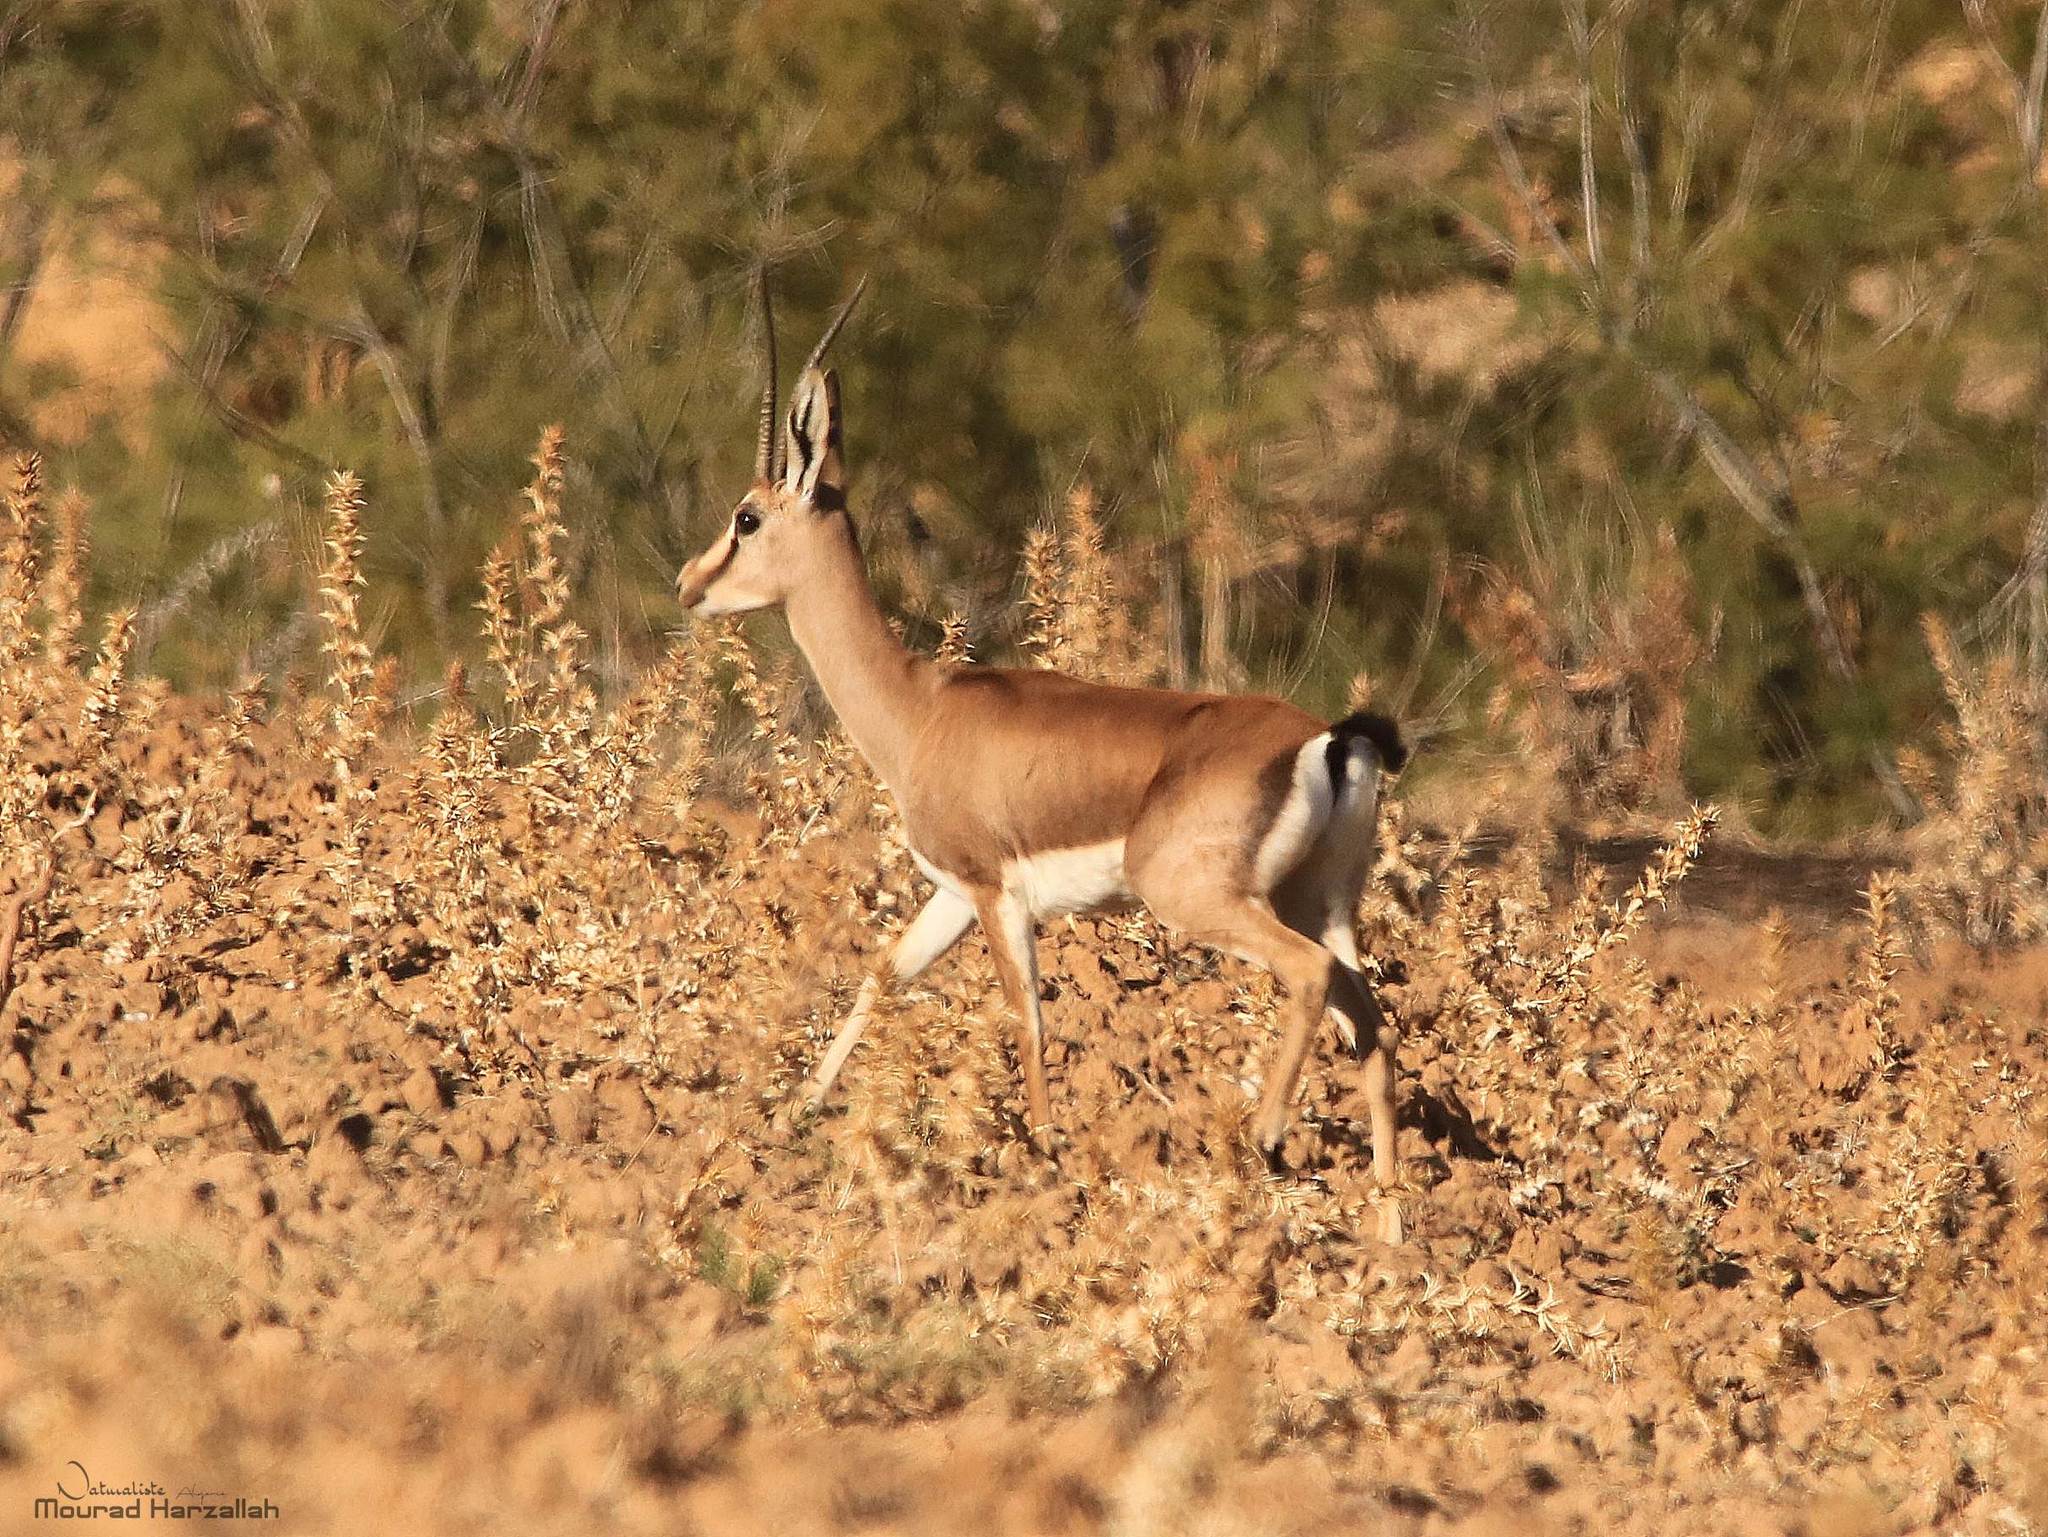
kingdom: Animalia
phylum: Chordata
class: Mammalia
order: Artiodactyla
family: Bovidae
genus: Gazella
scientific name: Gazella cuvieri
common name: Cuvier's gazelle
